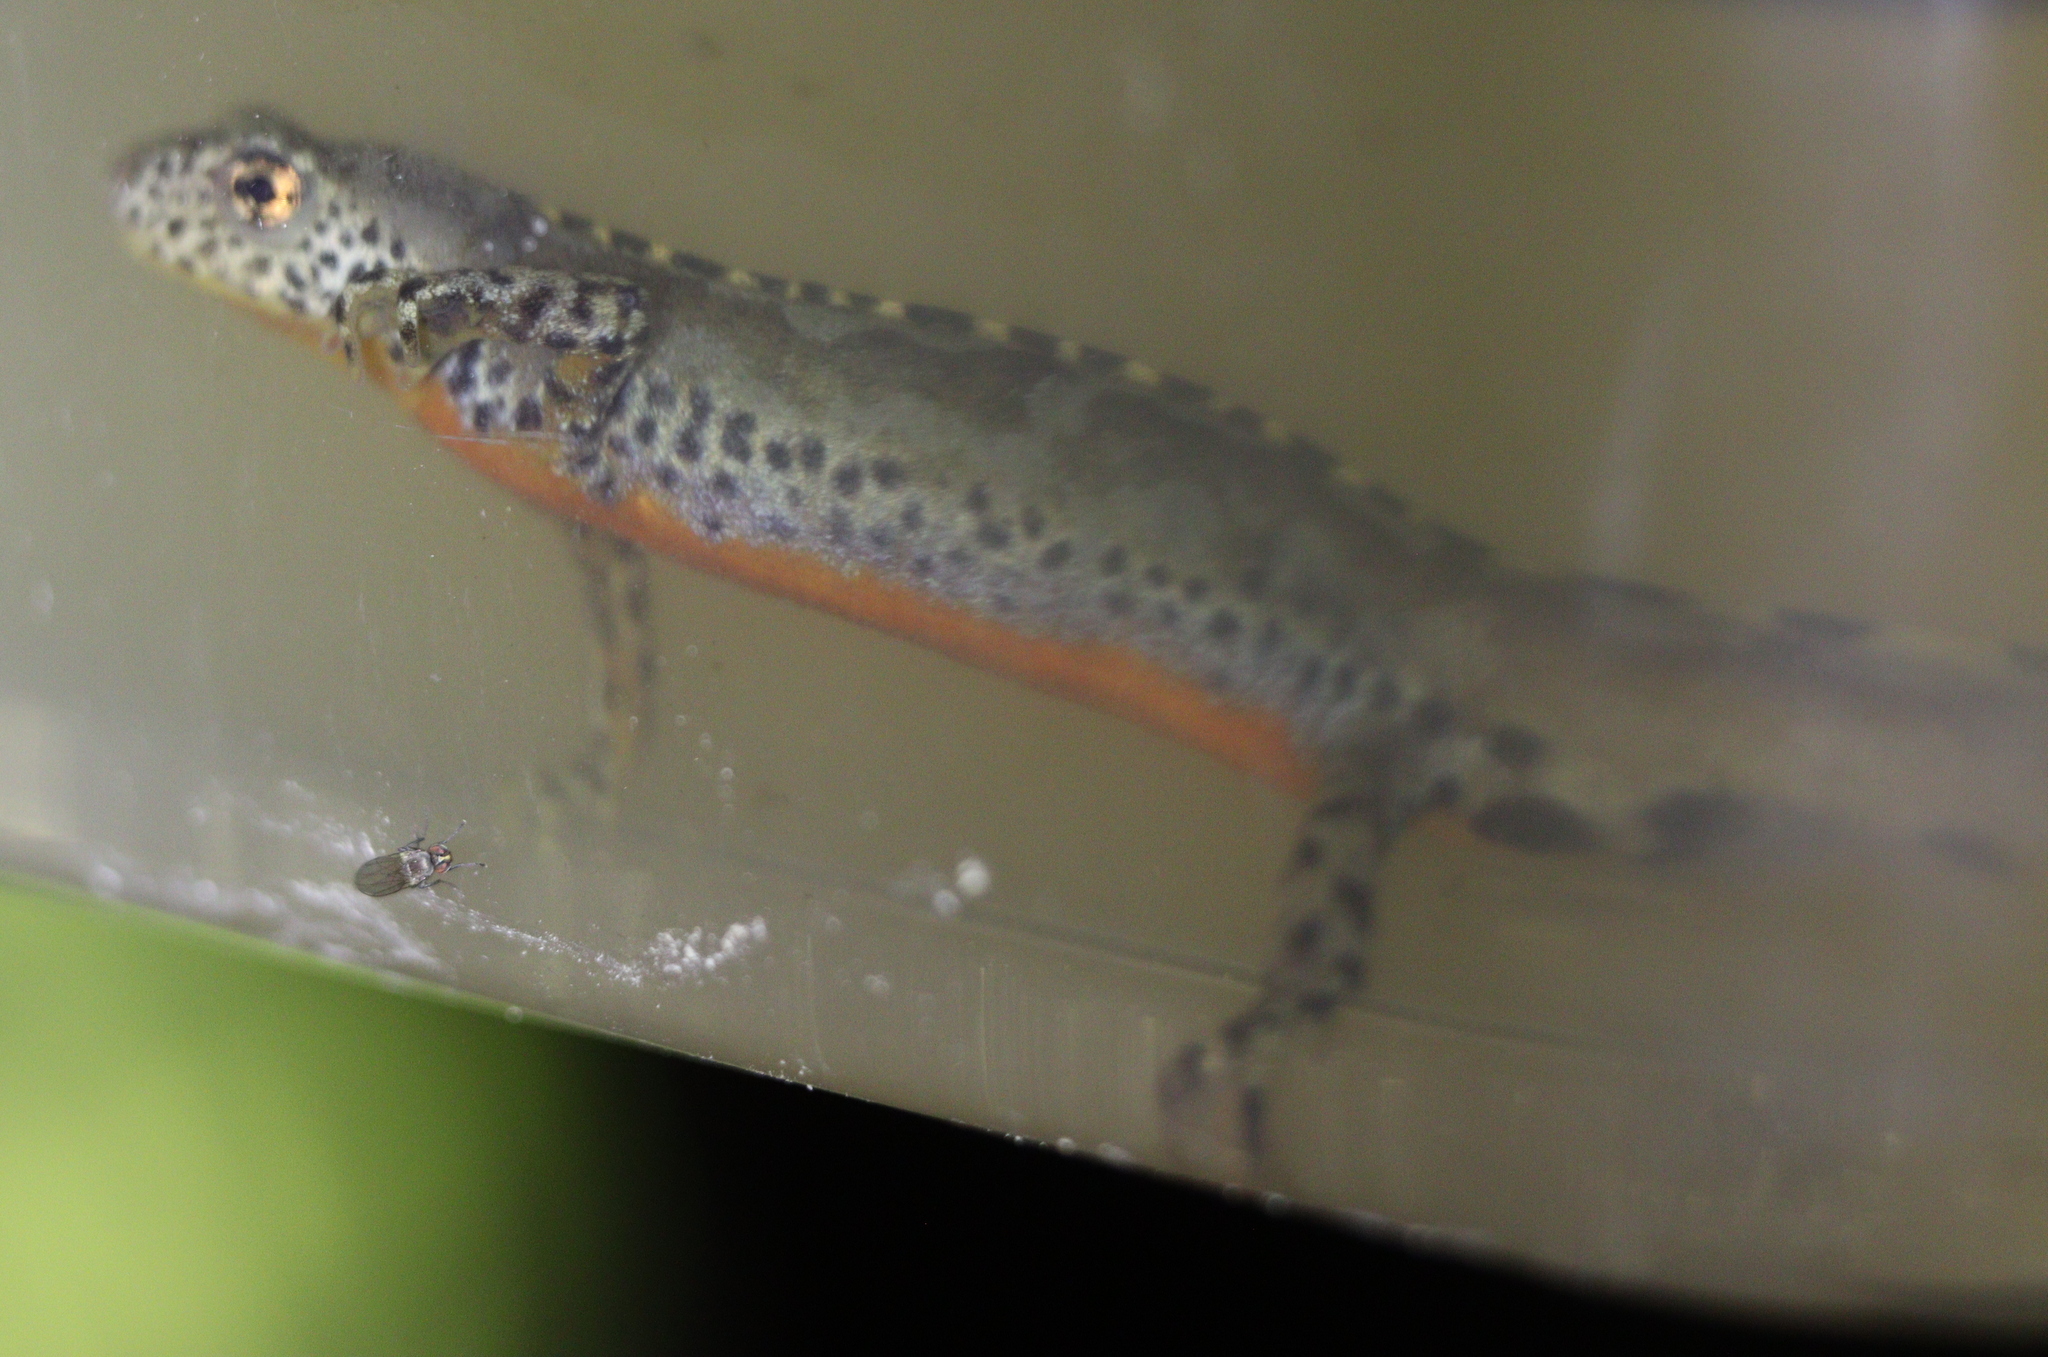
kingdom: Animalia
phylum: Chordata
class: Amphibia
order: Caudata
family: Salamandridae
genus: Ichthyosaura
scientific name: Ichthyosaura alpestris
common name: Alpine newt
